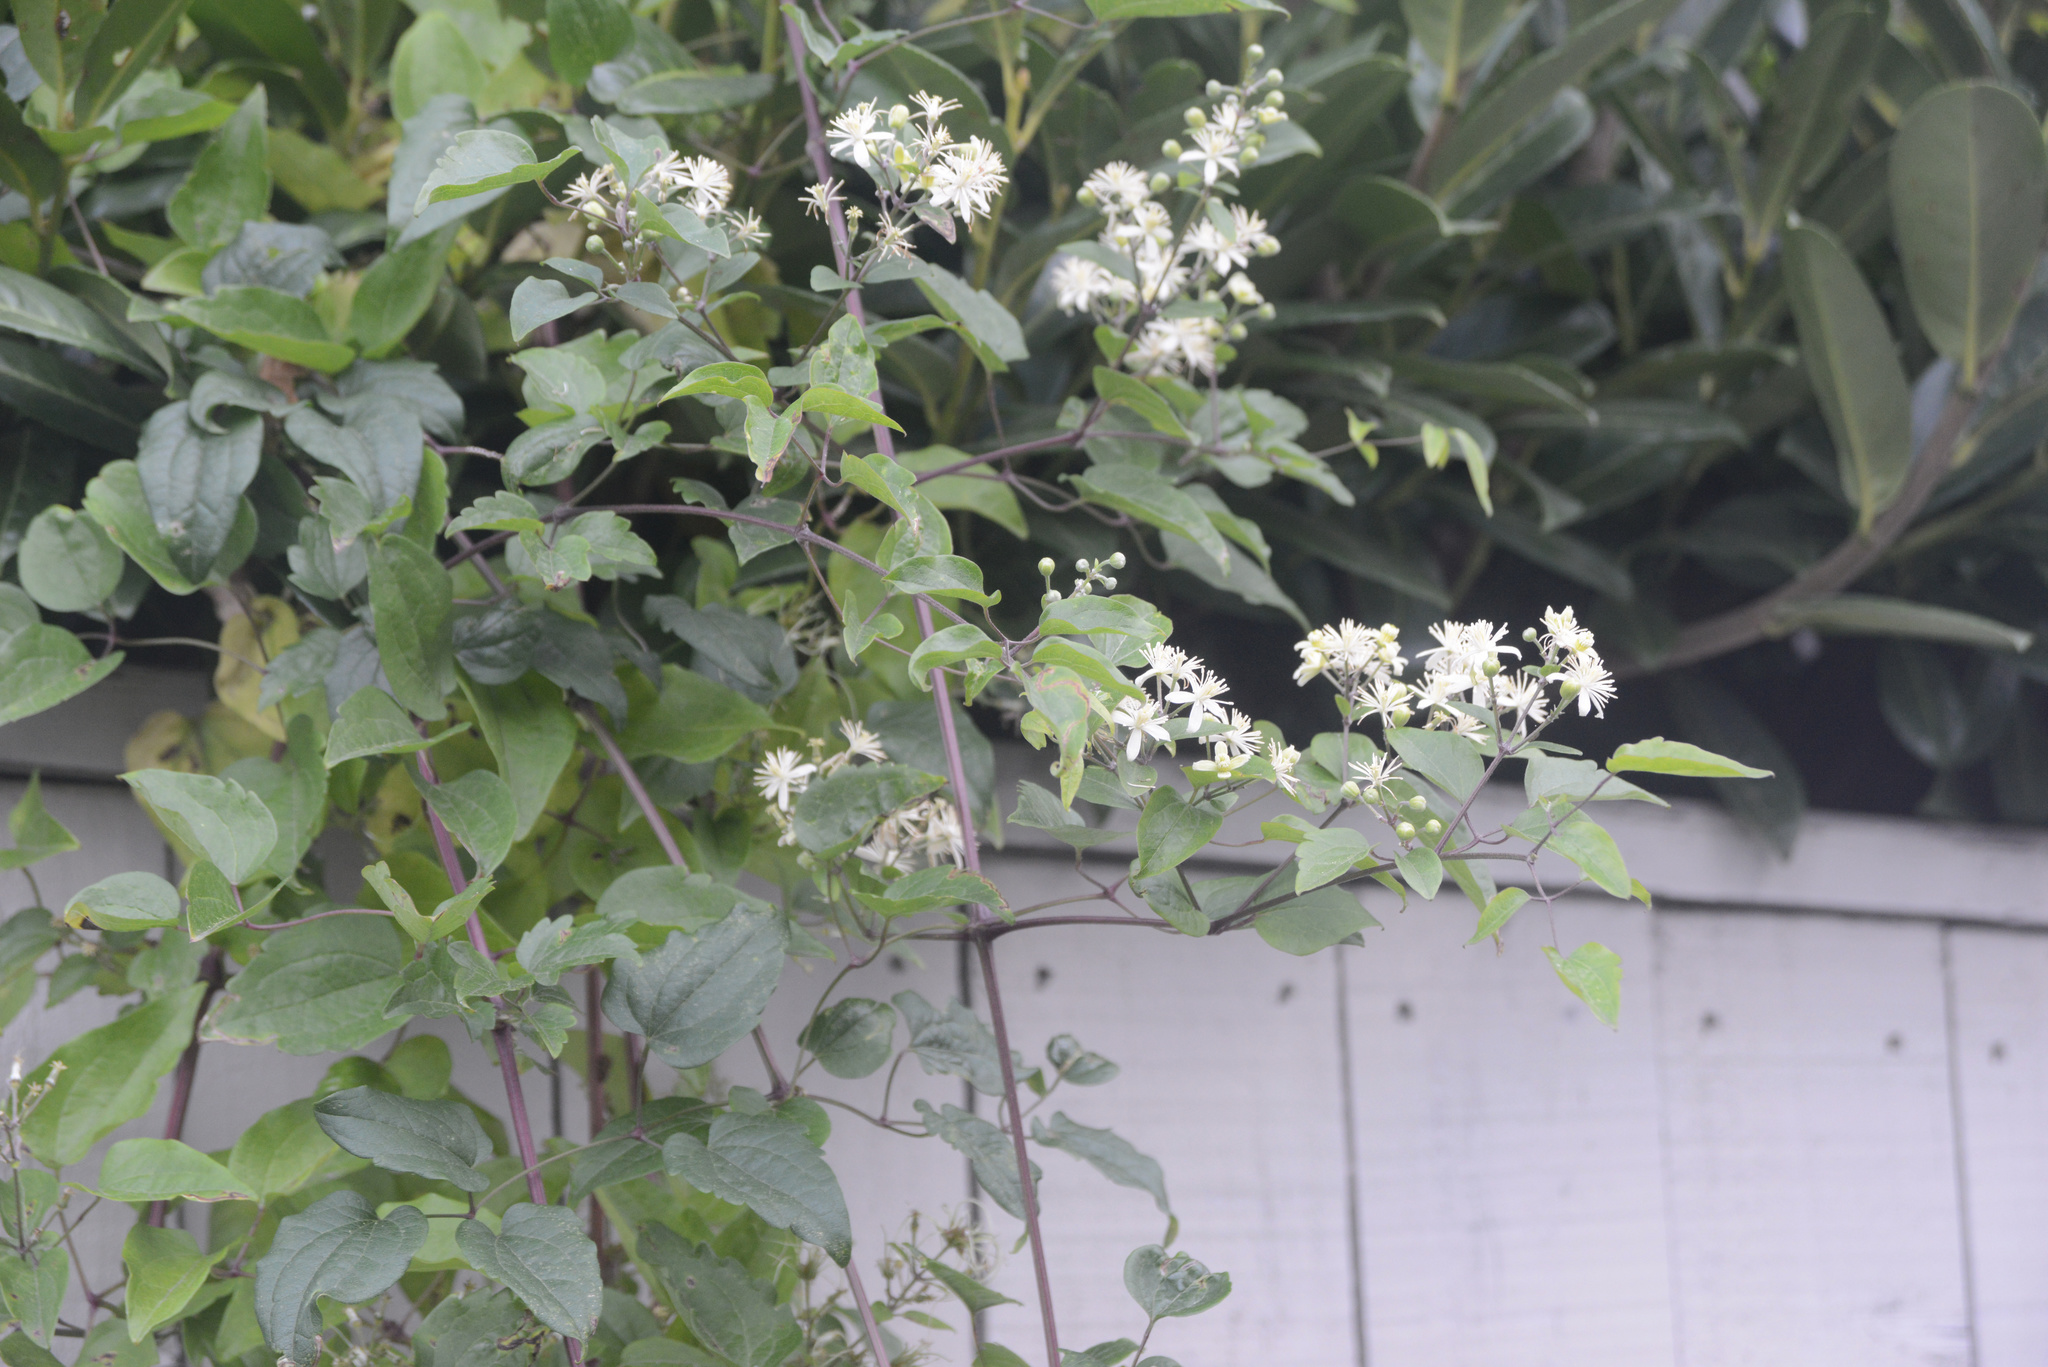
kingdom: Plantae
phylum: Tracheophyta
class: Magnoliopsida
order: Ranunculales
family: Ranunculaceae
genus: Clematis
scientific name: Clematis vitalba
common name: Evergreen clematis
